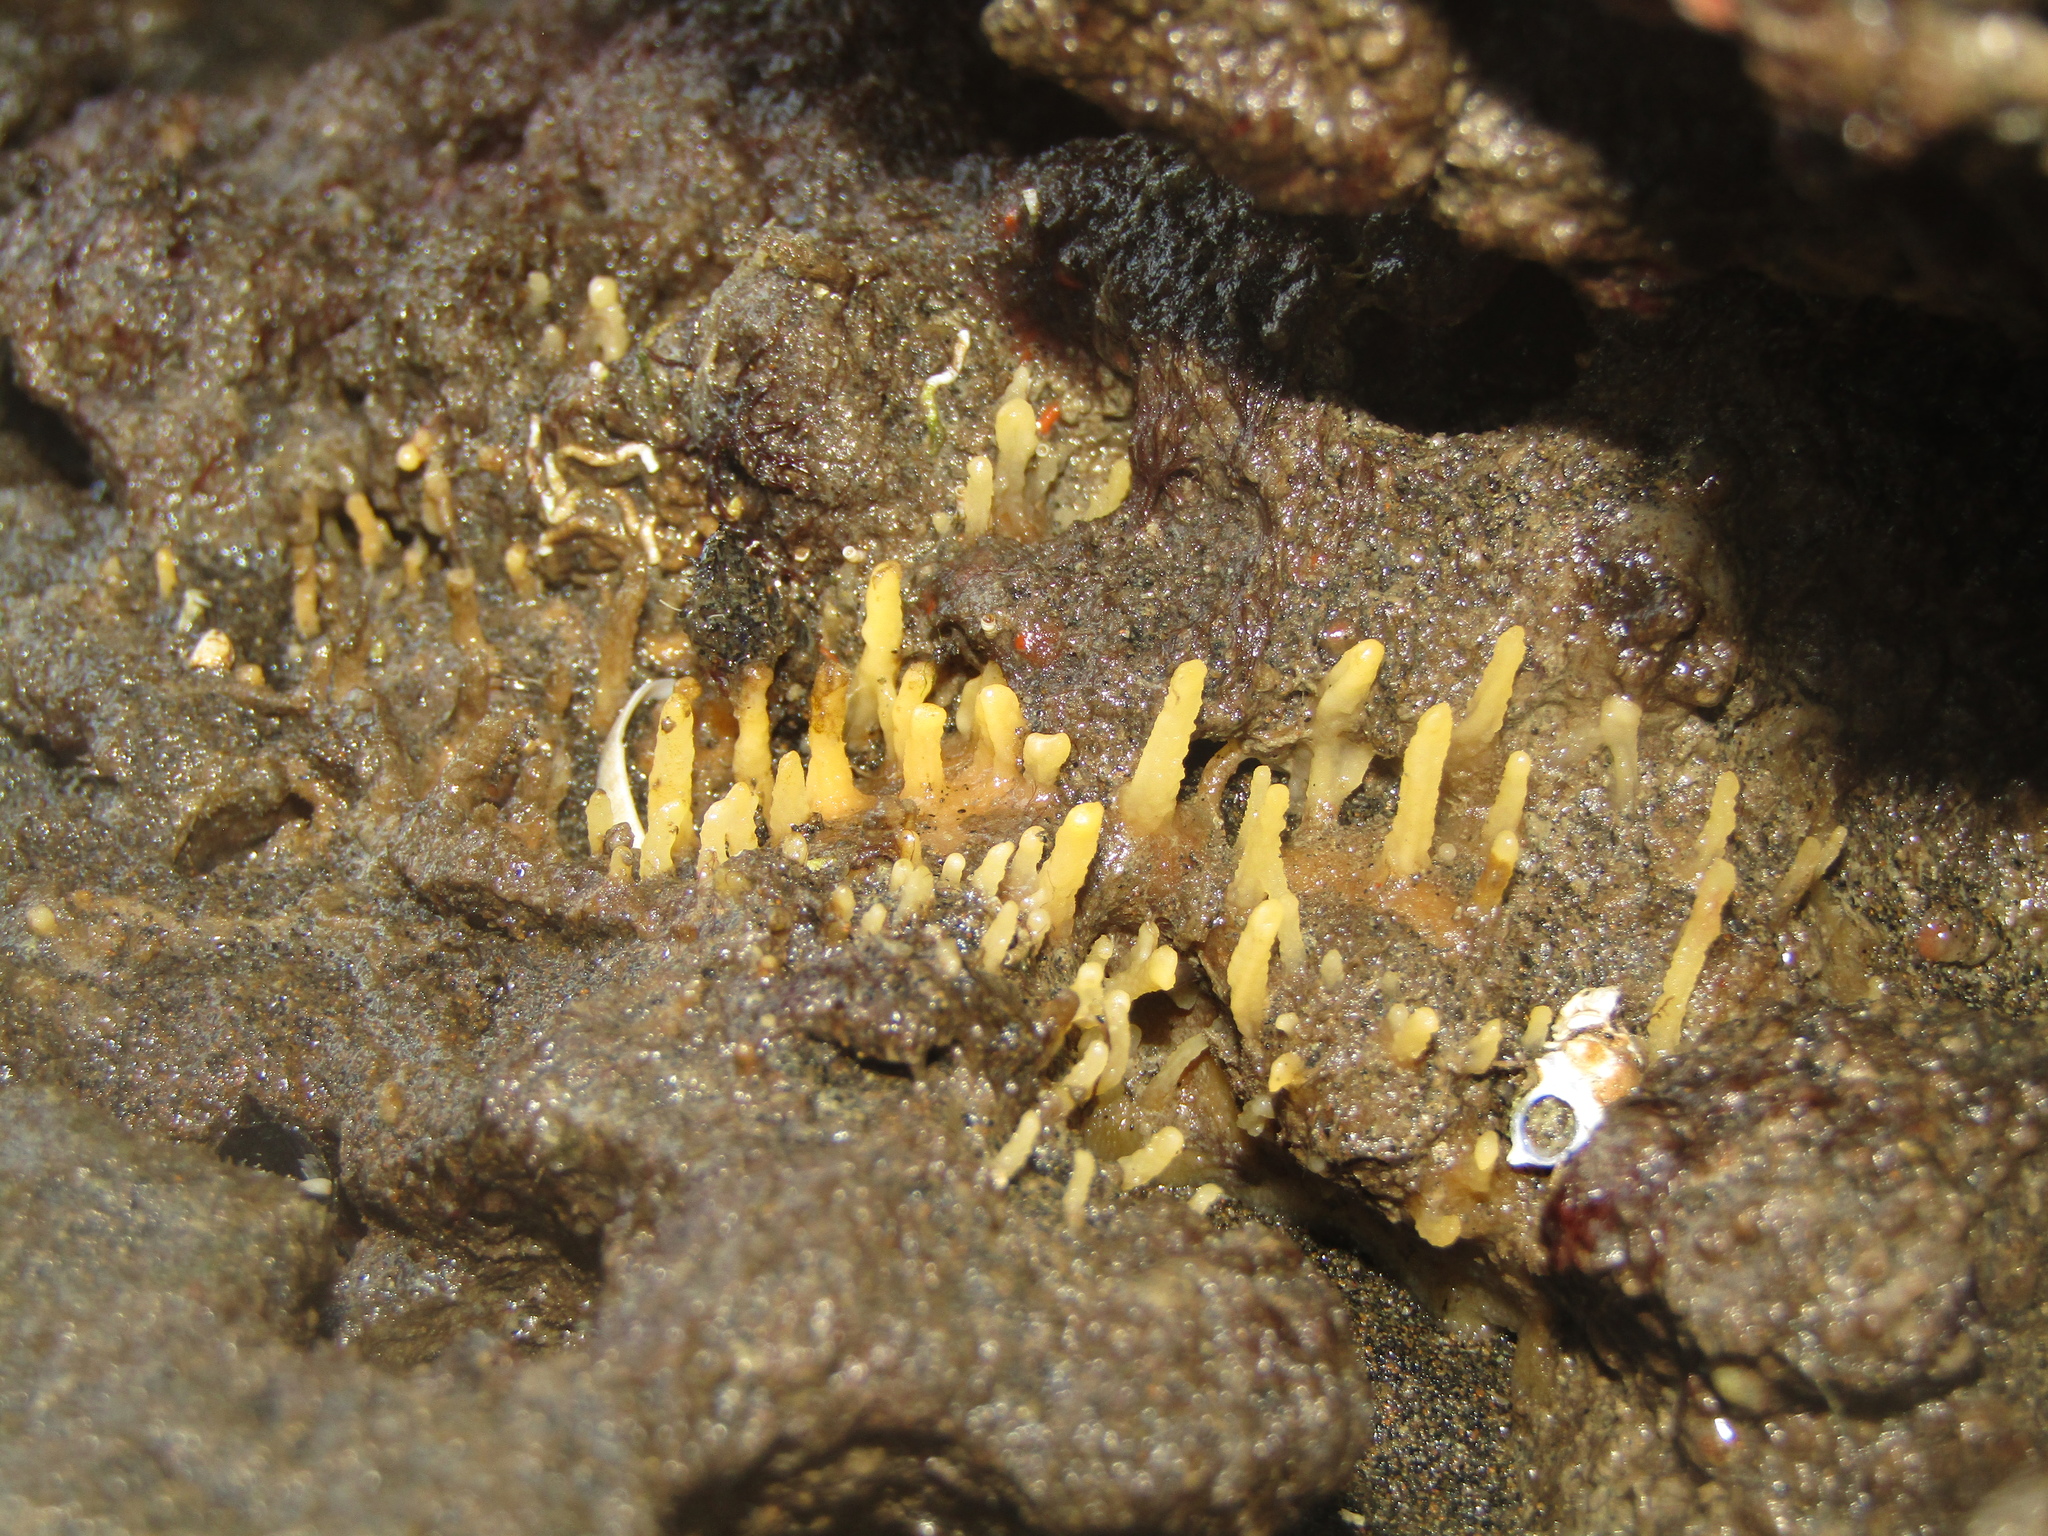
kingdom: Animalia
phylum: Porifera
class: Demospongiae
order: Suberitida
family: Halichondriidae
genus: Ciocalypta
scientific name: Ciocalypta polymastia
